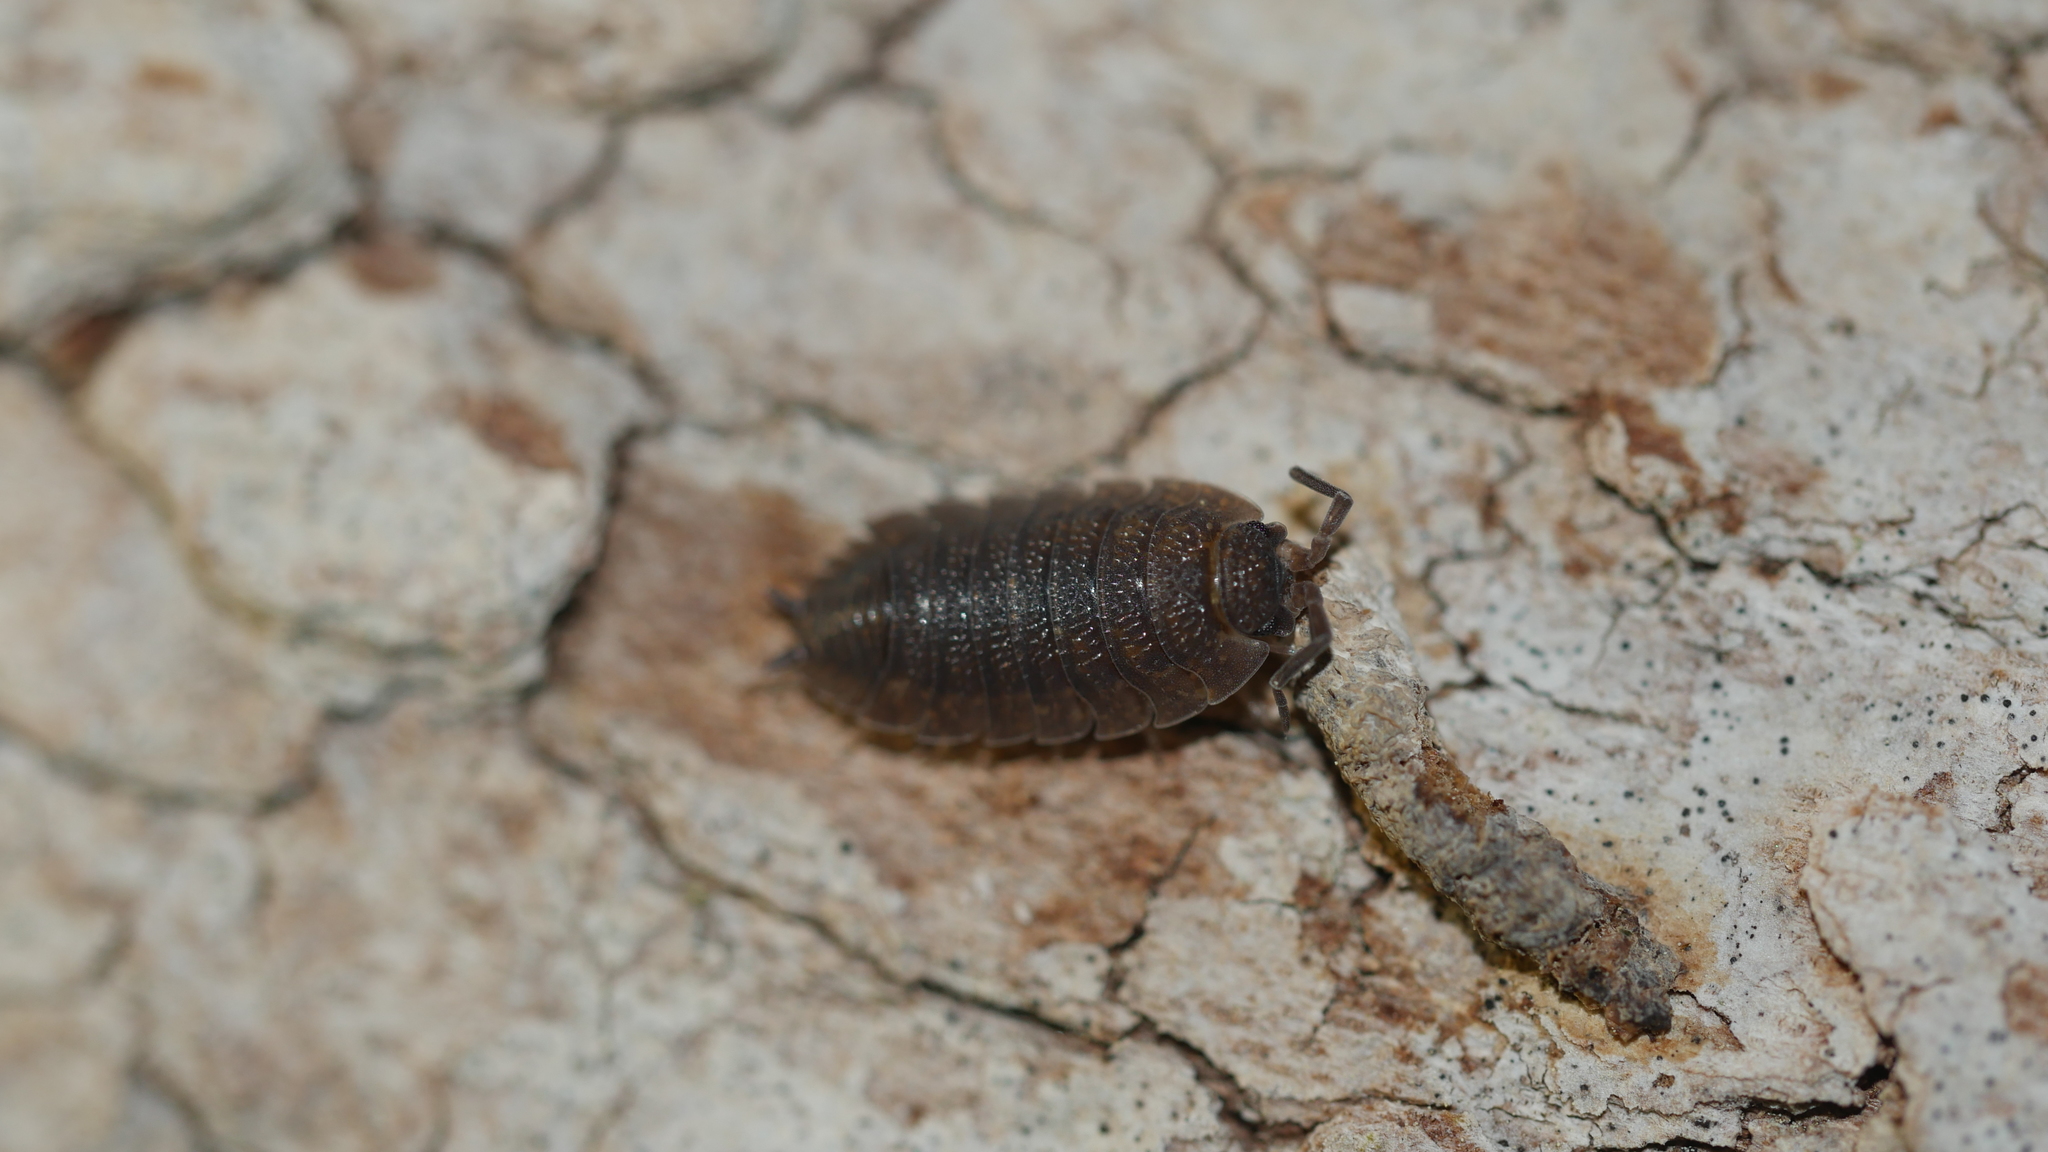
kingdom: Animalia
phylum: Arthropoda
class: Malacostraca
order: Isopoda
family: Porcellionidae
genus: Porcellio
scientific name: Porcellio scaber
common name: Common rough woodlouse
